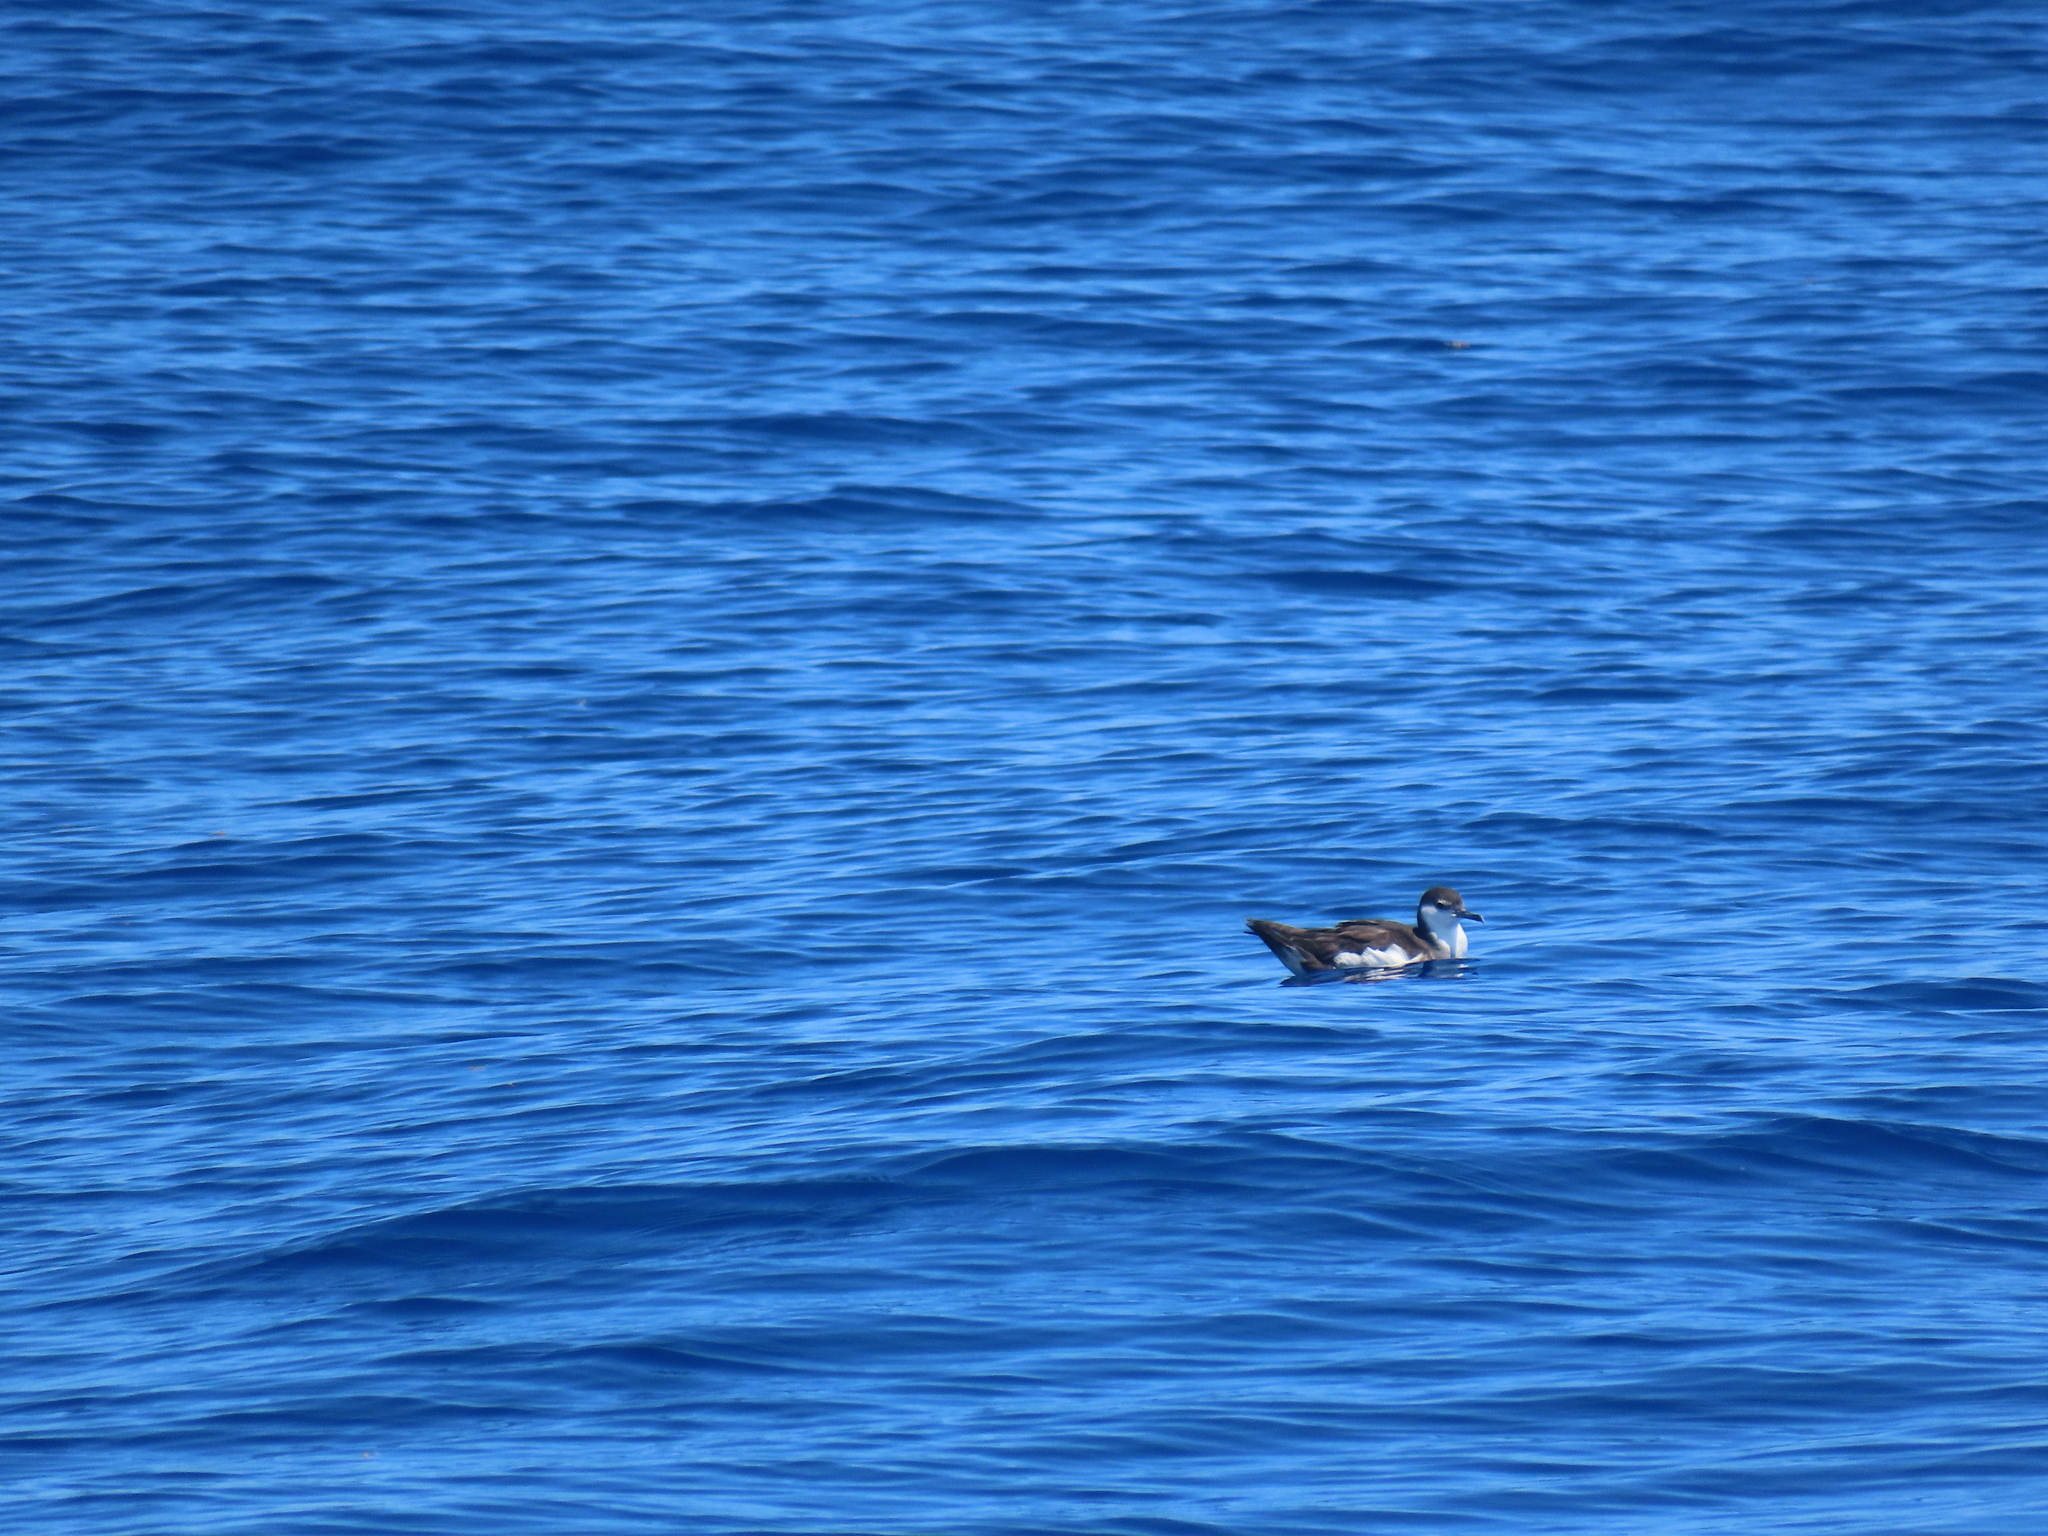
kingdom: Animalia
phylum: Chordata
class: Aves
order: Procellariiformes
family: Procellariidae
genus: Puffinus
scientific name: Puffinus lherminieri
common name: Audubon's shearwater
